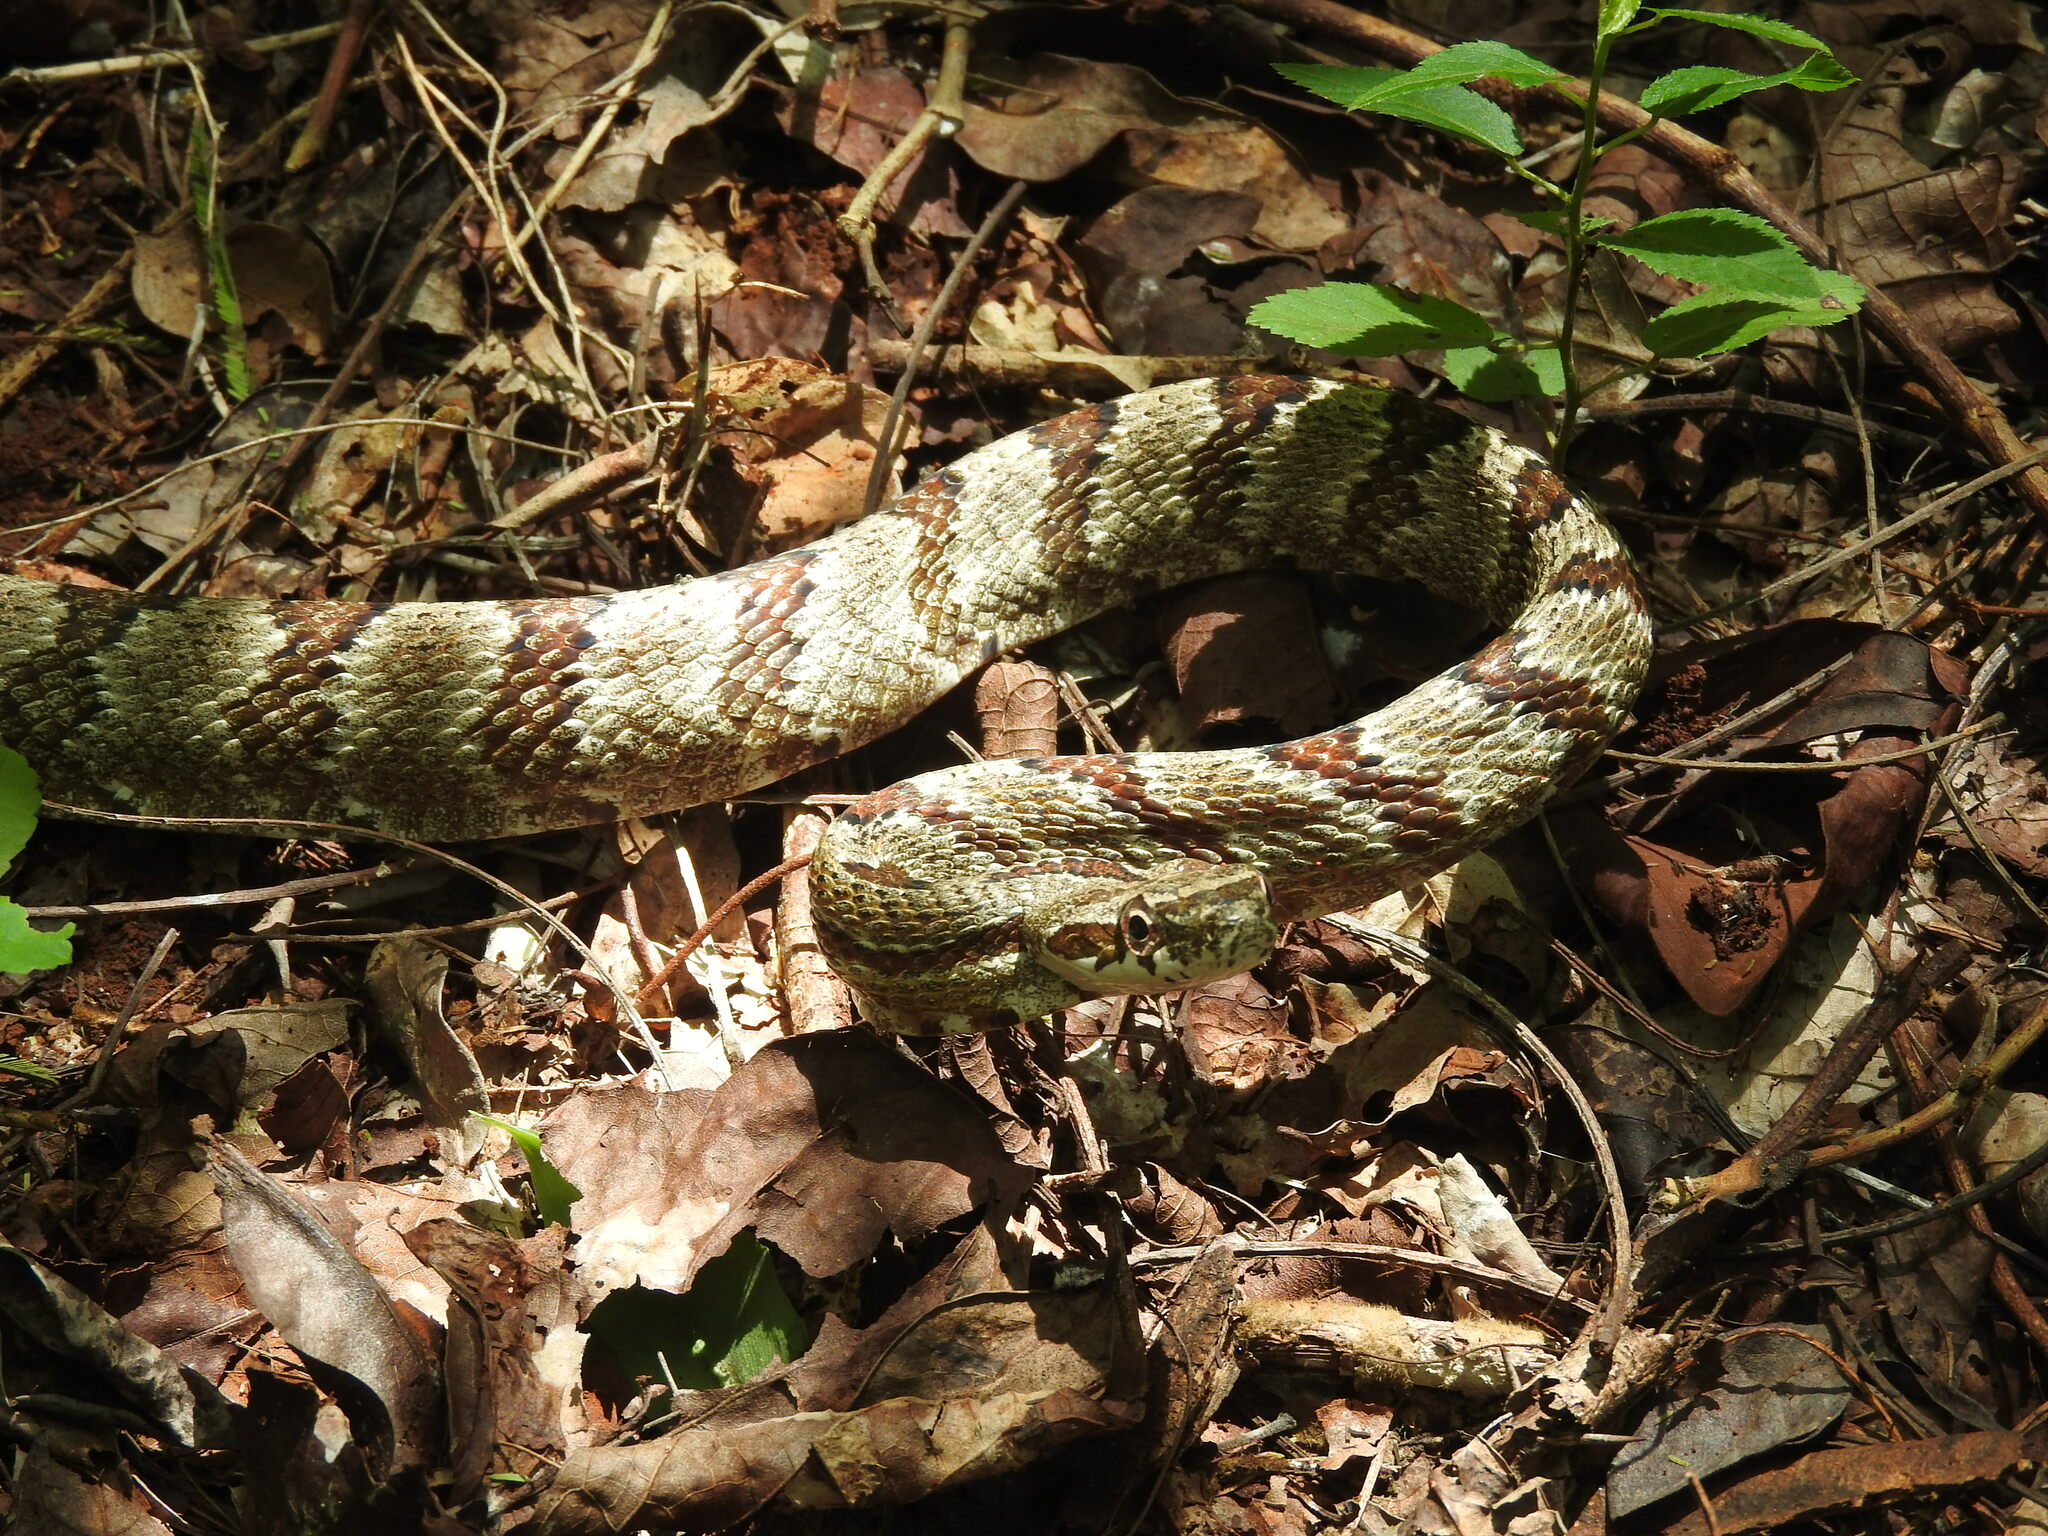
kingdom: Animalia
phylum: Chordata
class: Squamata
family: Colubridae
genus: Phrynonax
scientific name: Phrynonax poecilonotus
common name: Puffing snake
